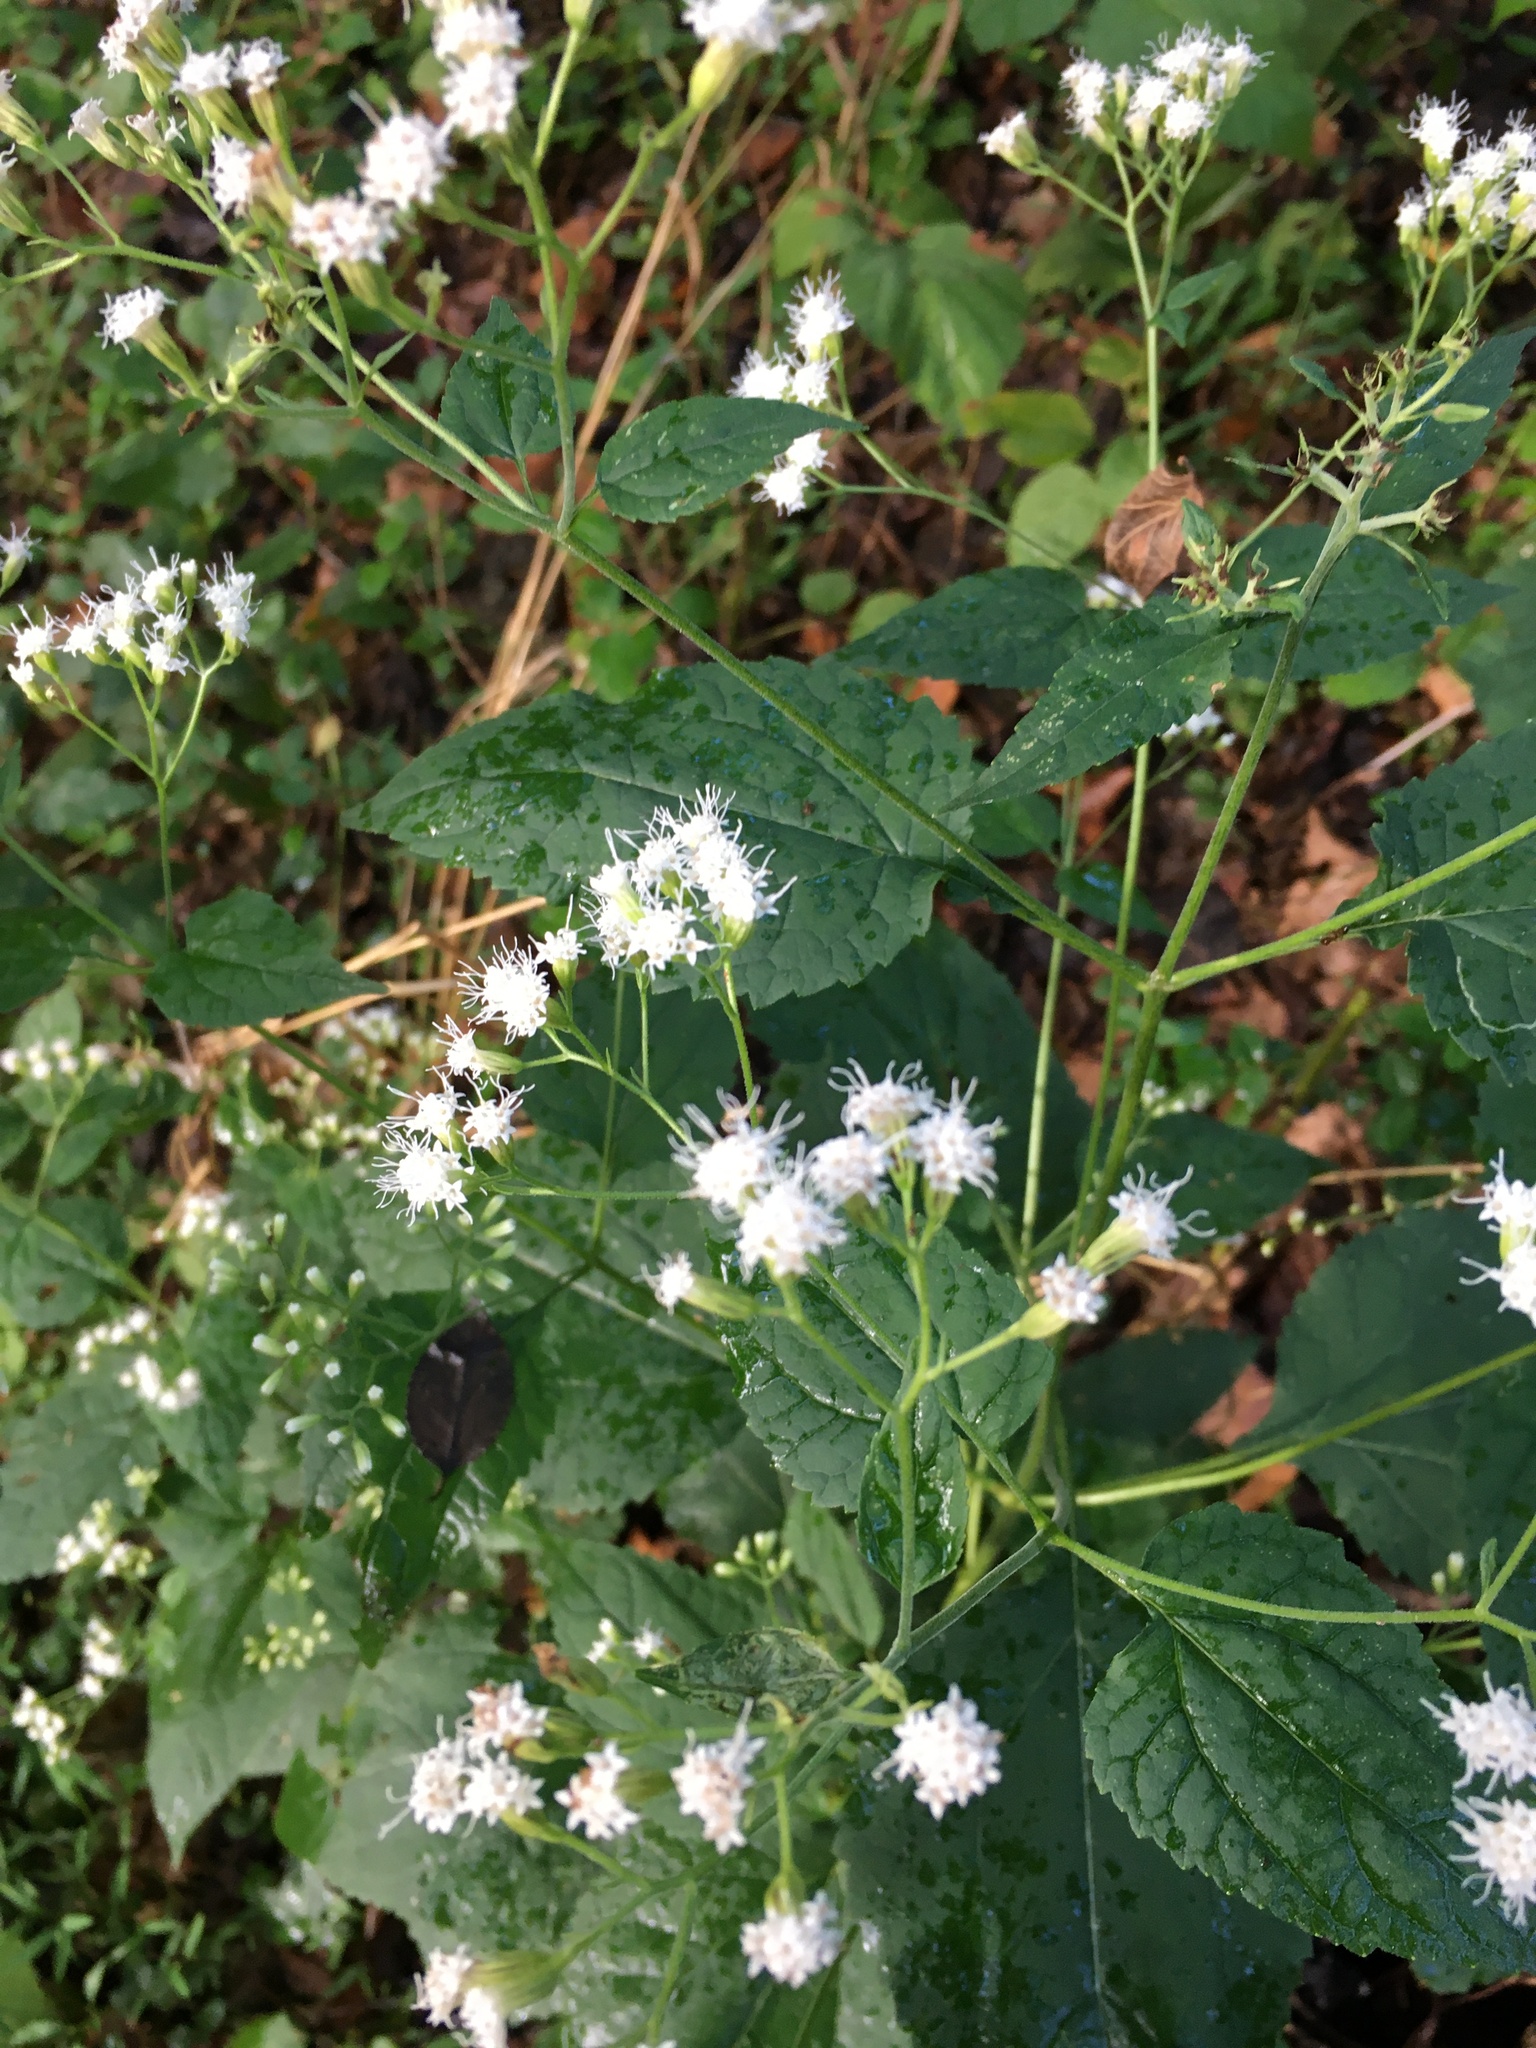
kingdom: Plantae
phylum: Tracheophyta
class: Magnoliopsida
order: Asterales
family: Asteraceae
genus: Ageratina
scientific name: Ageratina altissima
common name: White snakeroot
